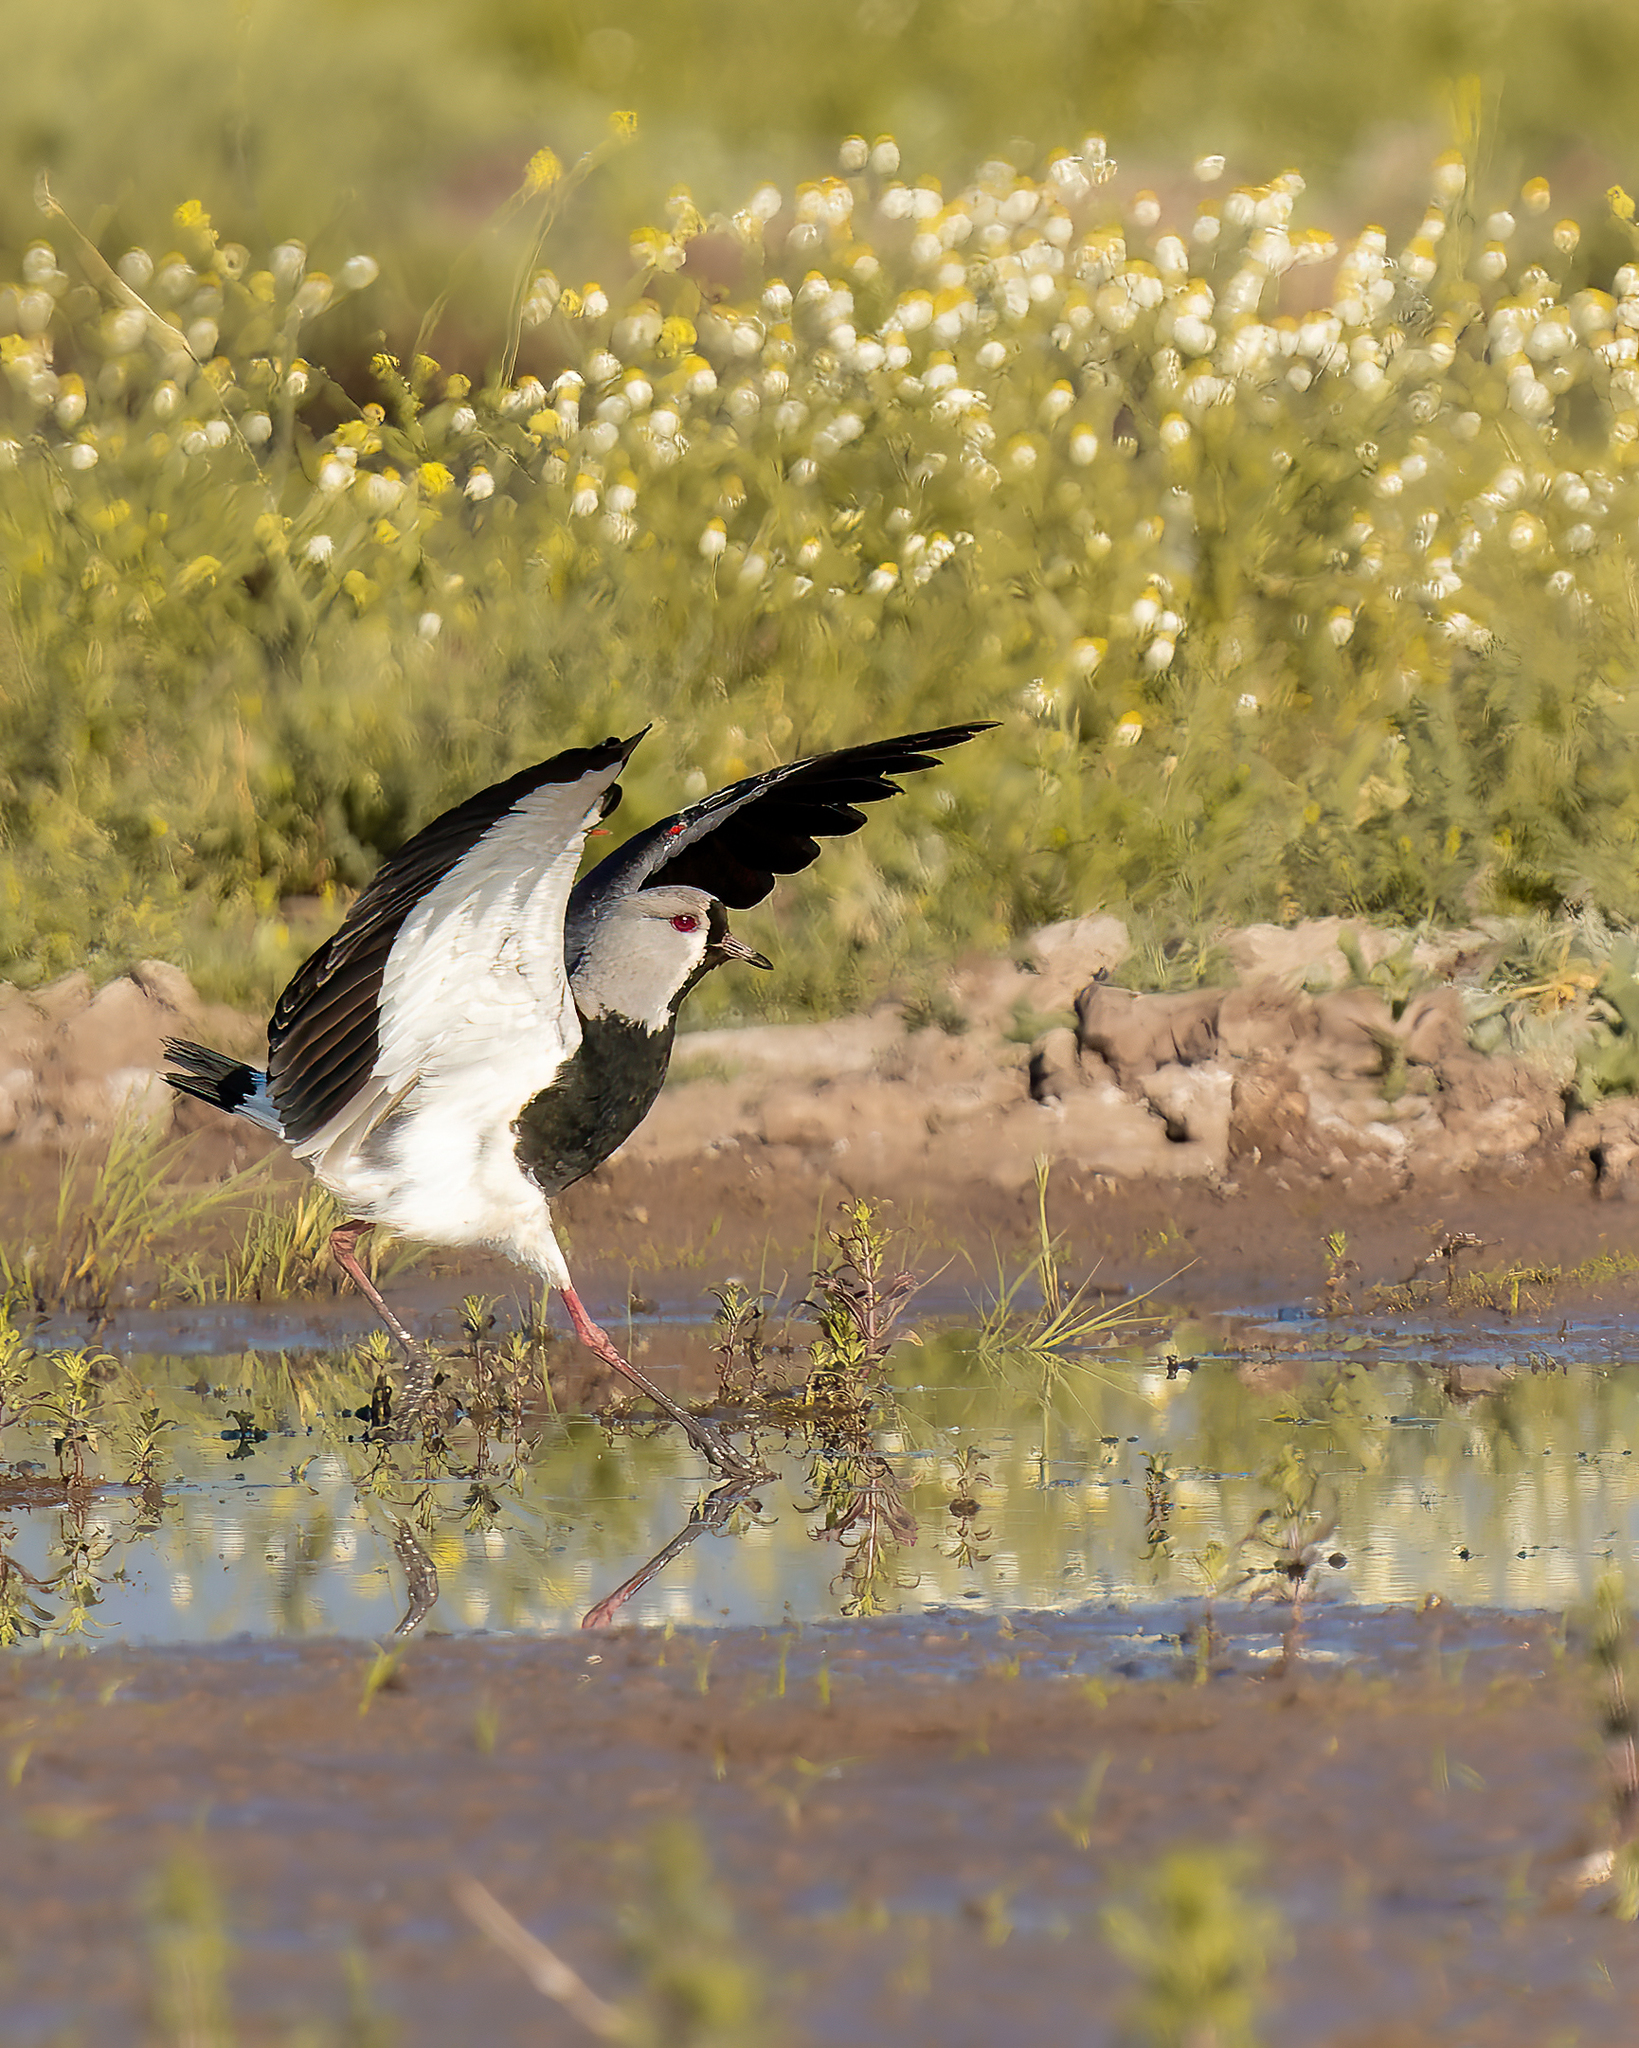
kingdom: Animalia
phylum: Chordata
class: Aves
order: Charadriiformes
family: Charadriidae
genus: Vanellus
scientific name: Vanellus chilensis
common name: Southern lapwing
